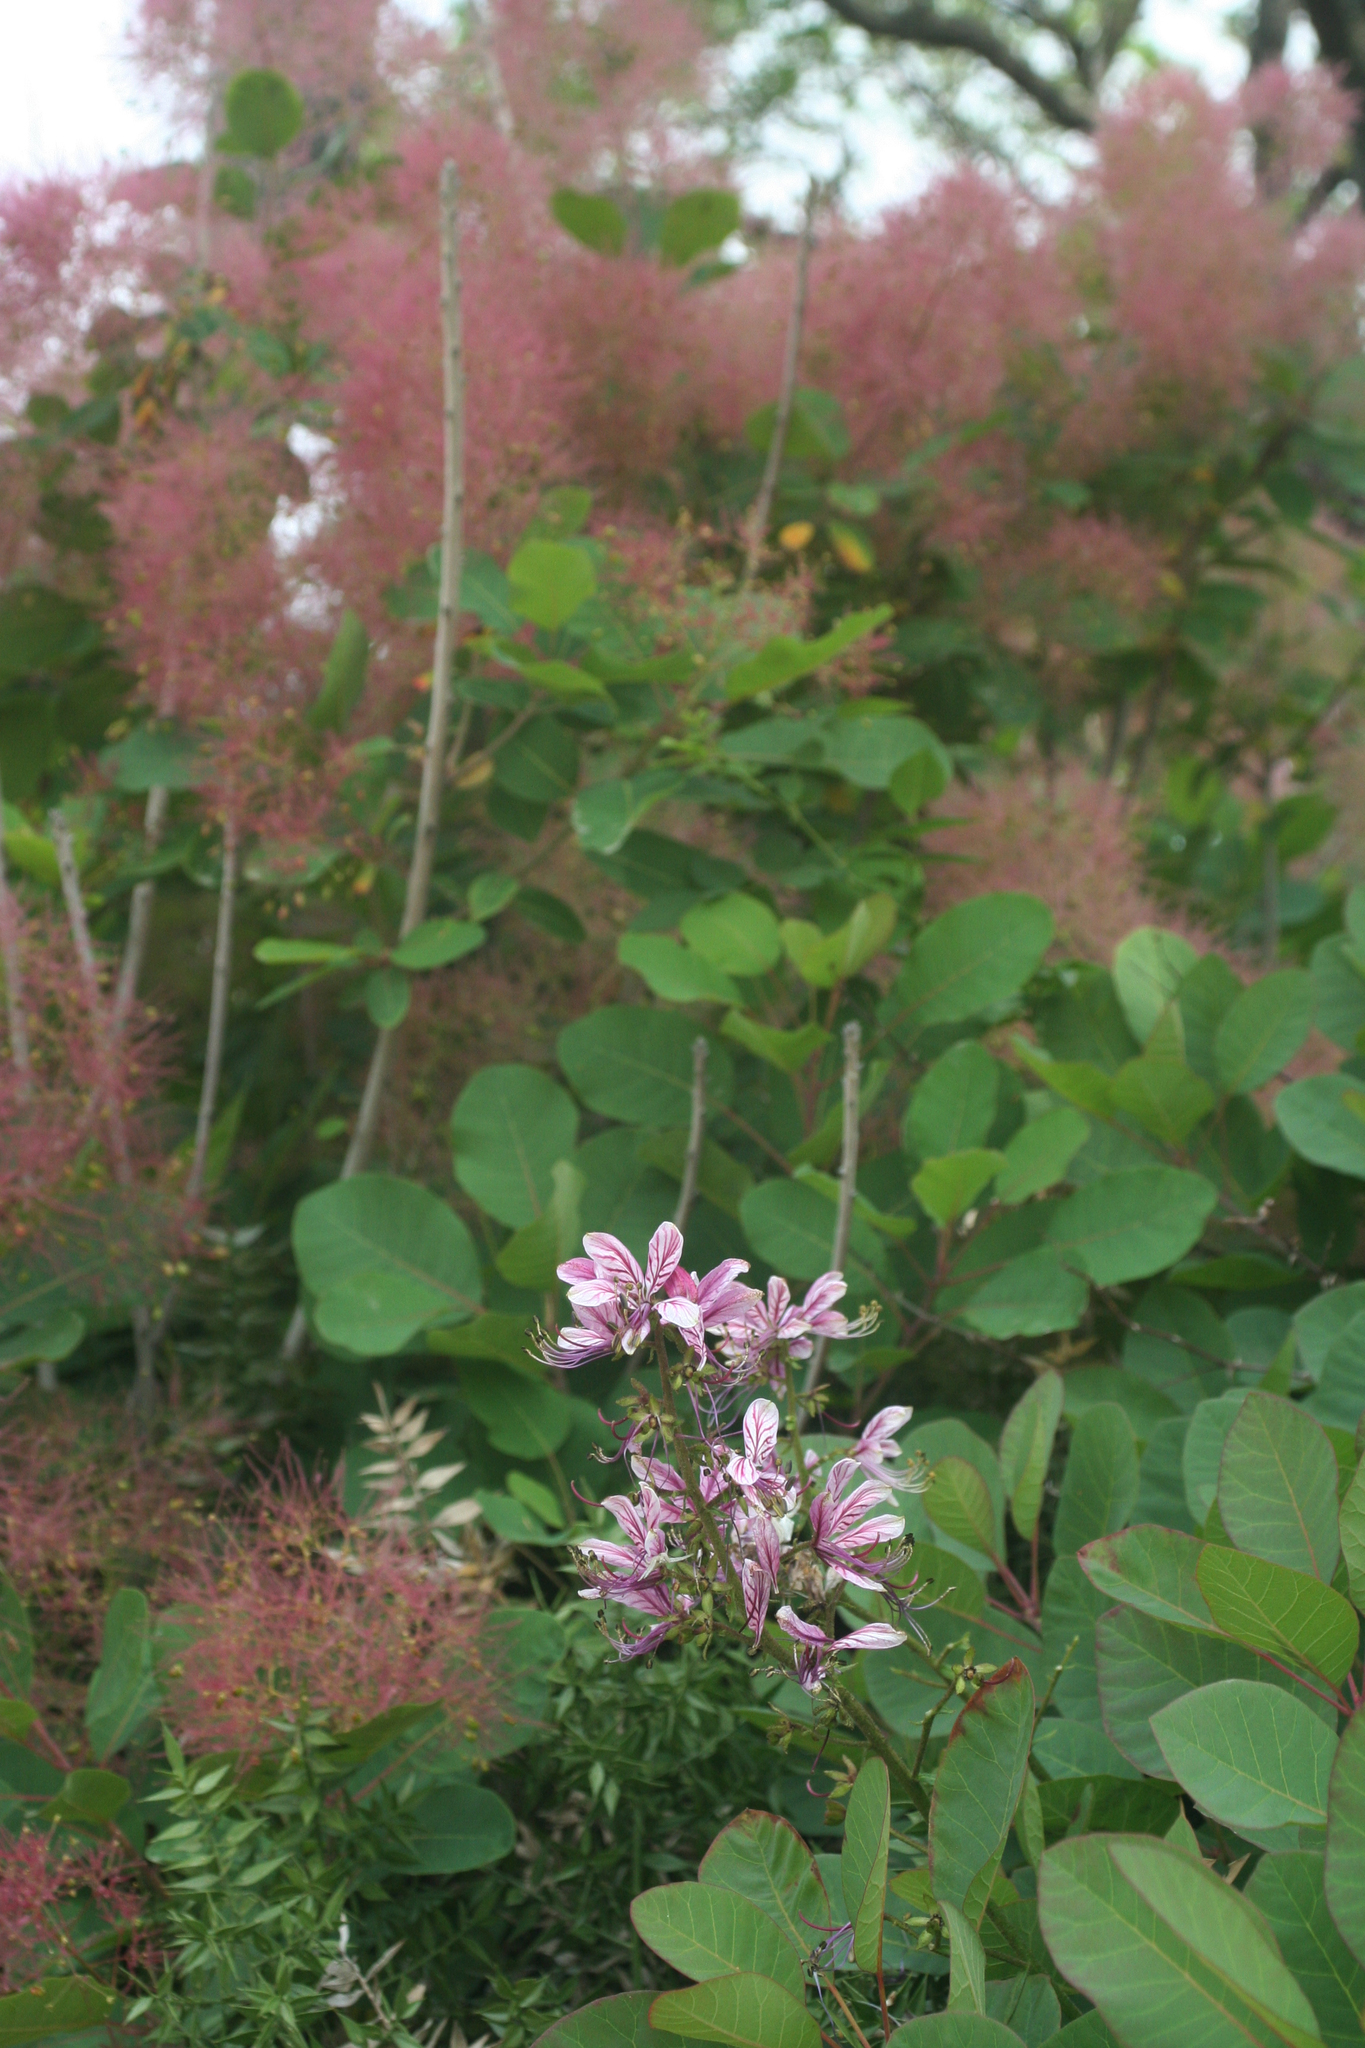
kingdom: Plantae
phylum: Tracheophyta
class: Magnoliopsida
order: Sapindales
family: Rutaceae
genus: Dictamnus
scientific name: Dictamnus albus
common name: Gasplant
